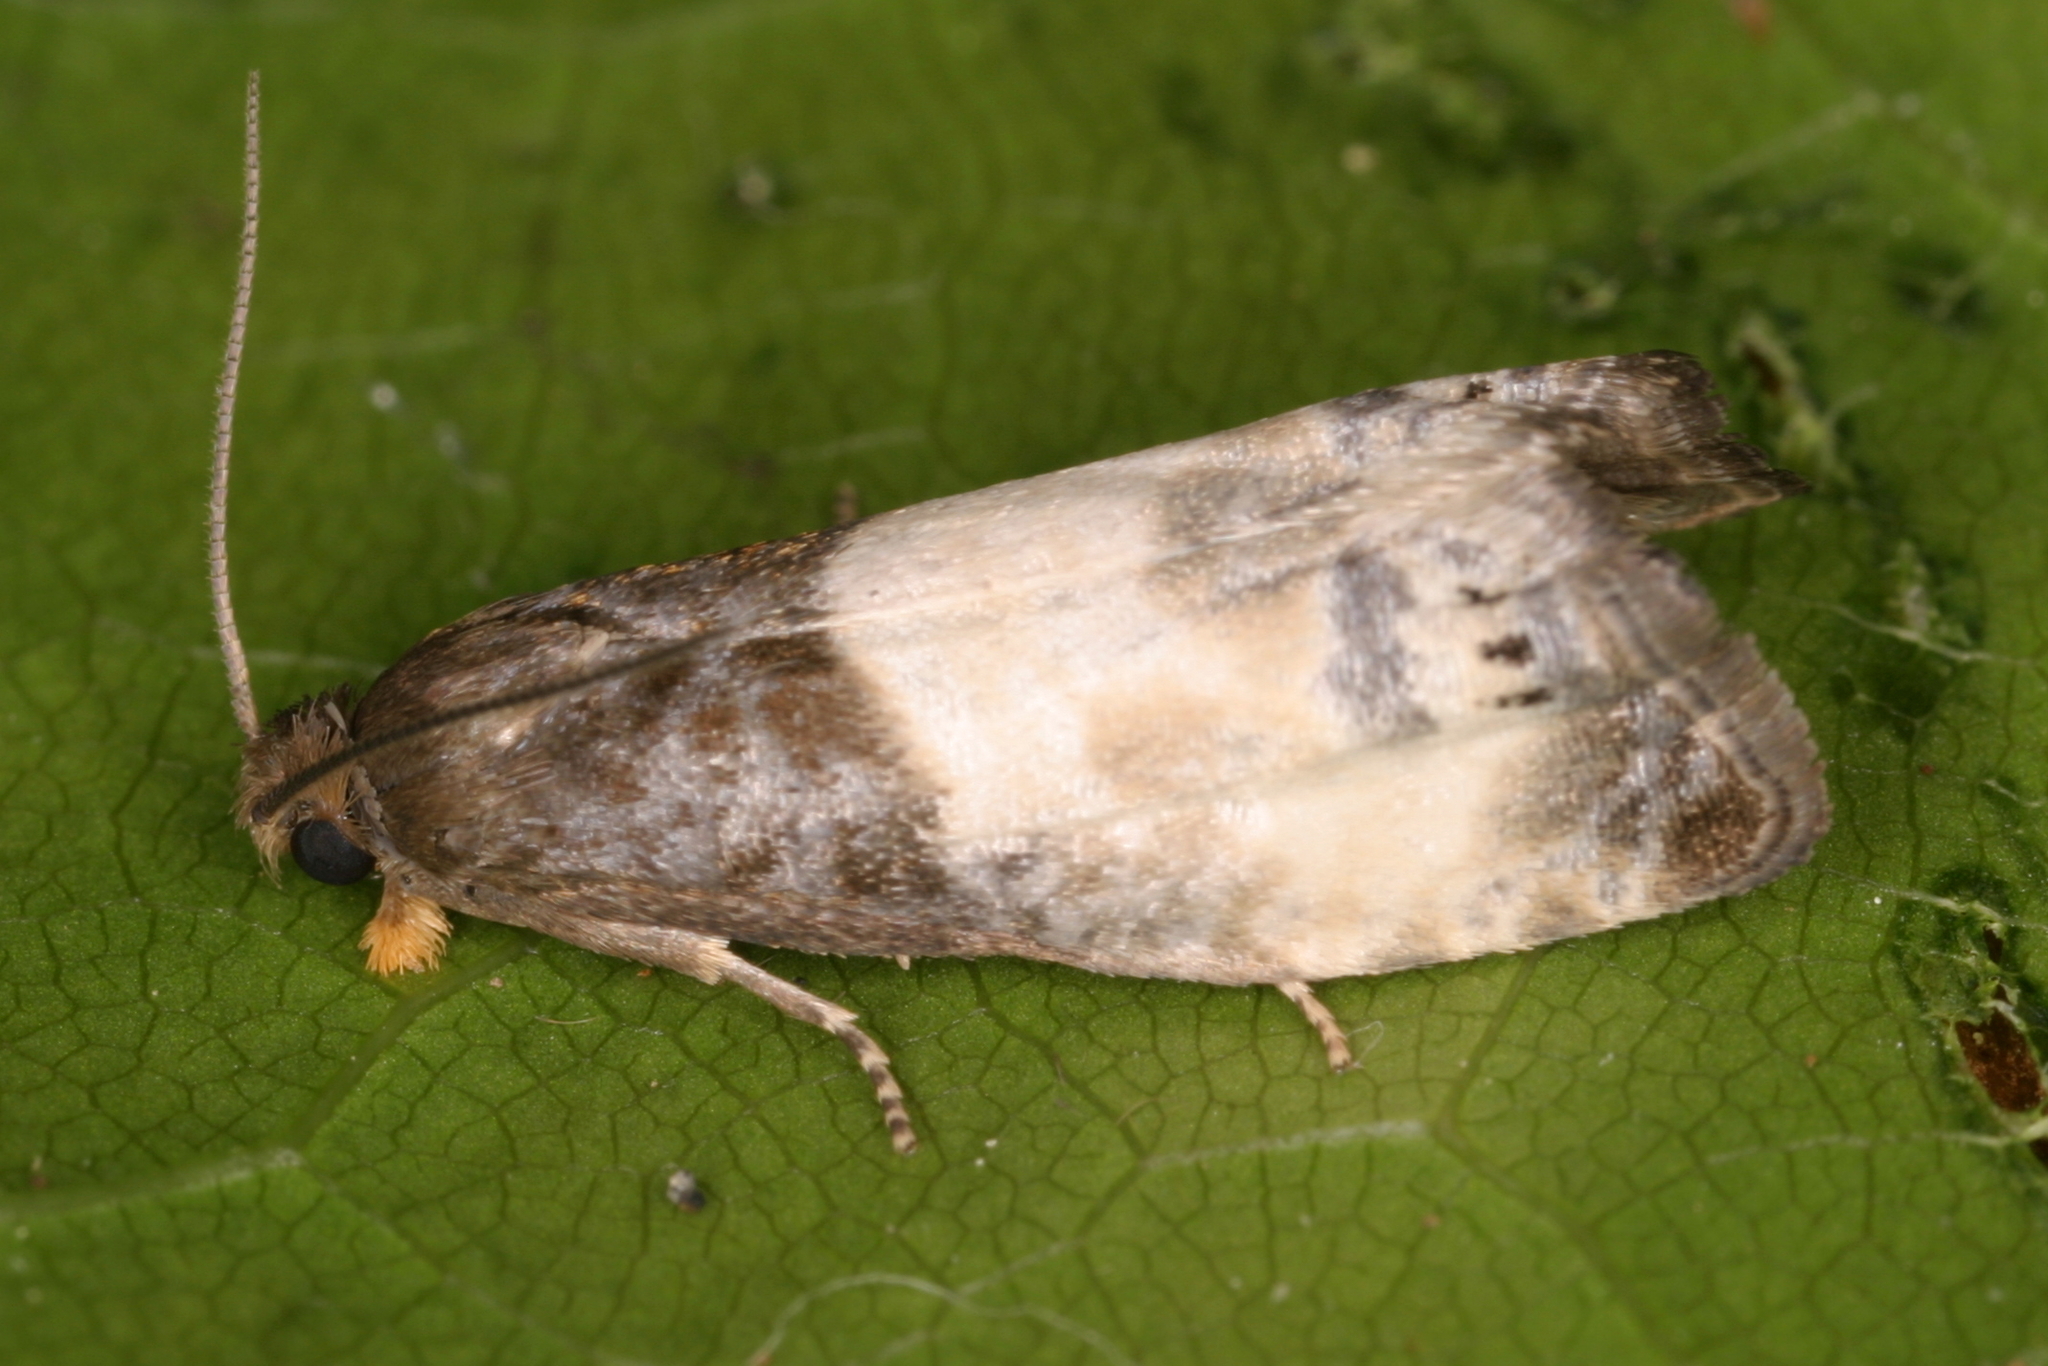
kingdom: Animalia
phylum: Arthropoda
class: Insecta
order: Lepidoptera
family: Tortricidae
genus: Notocelia
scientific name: Notocelia cynosbatella
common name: Yellow-faced bell moth
